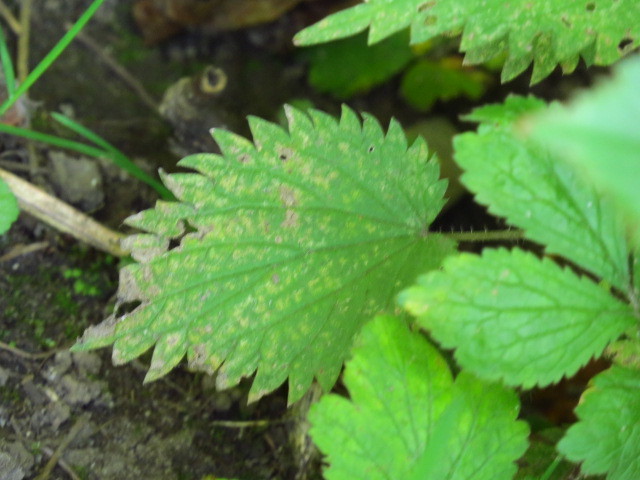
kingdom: Plantae
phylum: Tracheophyta
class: Magnoliopsida
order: Rosales
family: Urticaceae
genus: Urtica
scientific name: Urtica dioica
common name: Common nettle
